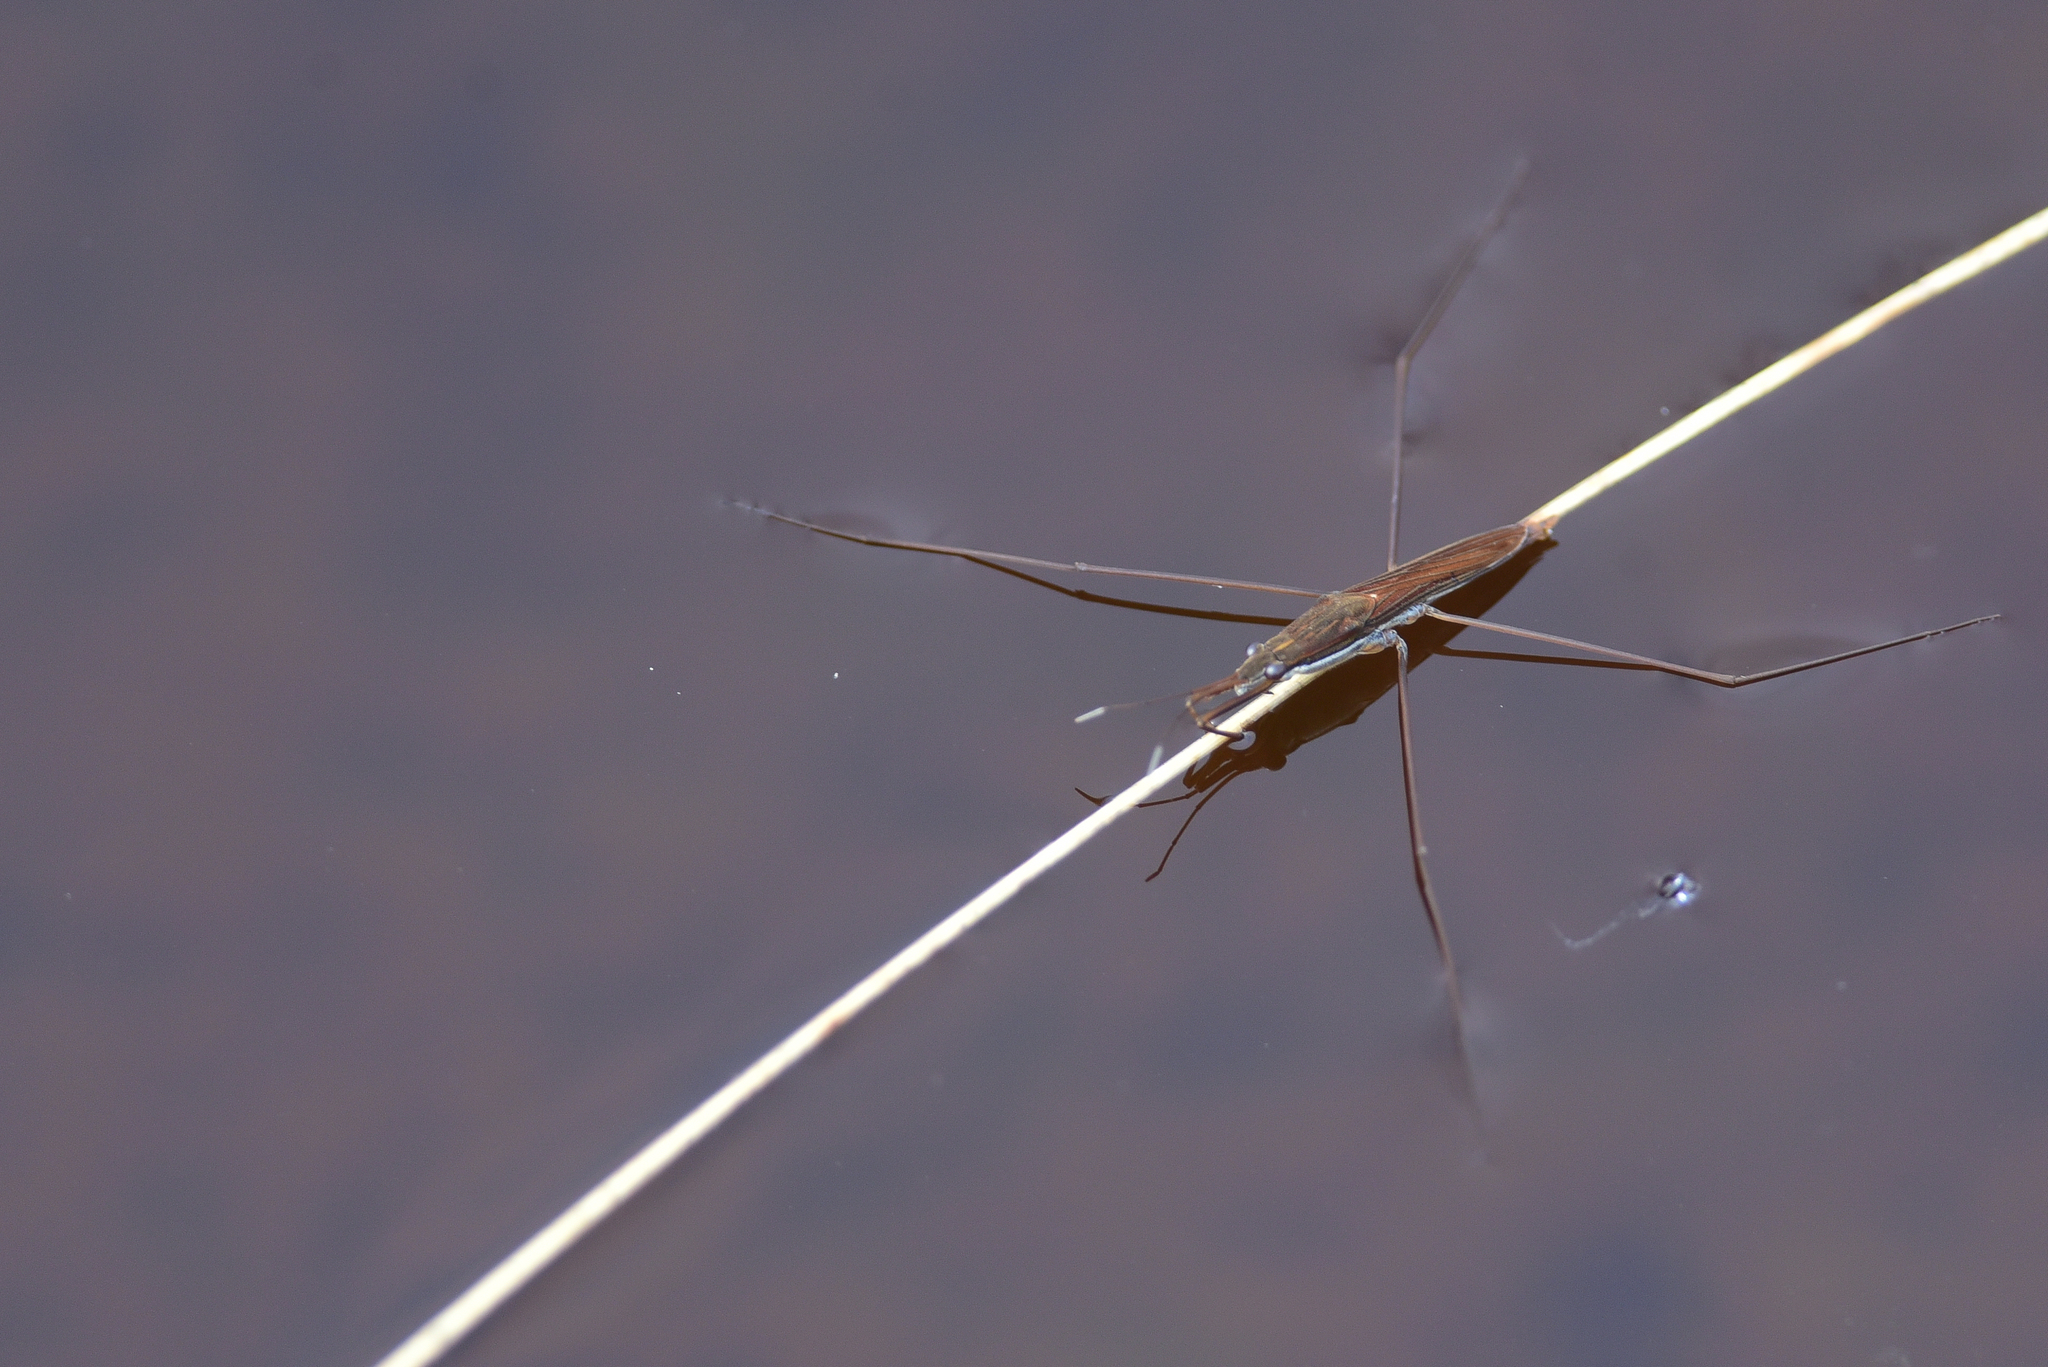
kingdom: Animalia
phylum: Arthropoda
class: Insecta
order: Hemiptera
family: Gerridae
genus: Limnoporus
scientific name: Limnoporus notabilis
